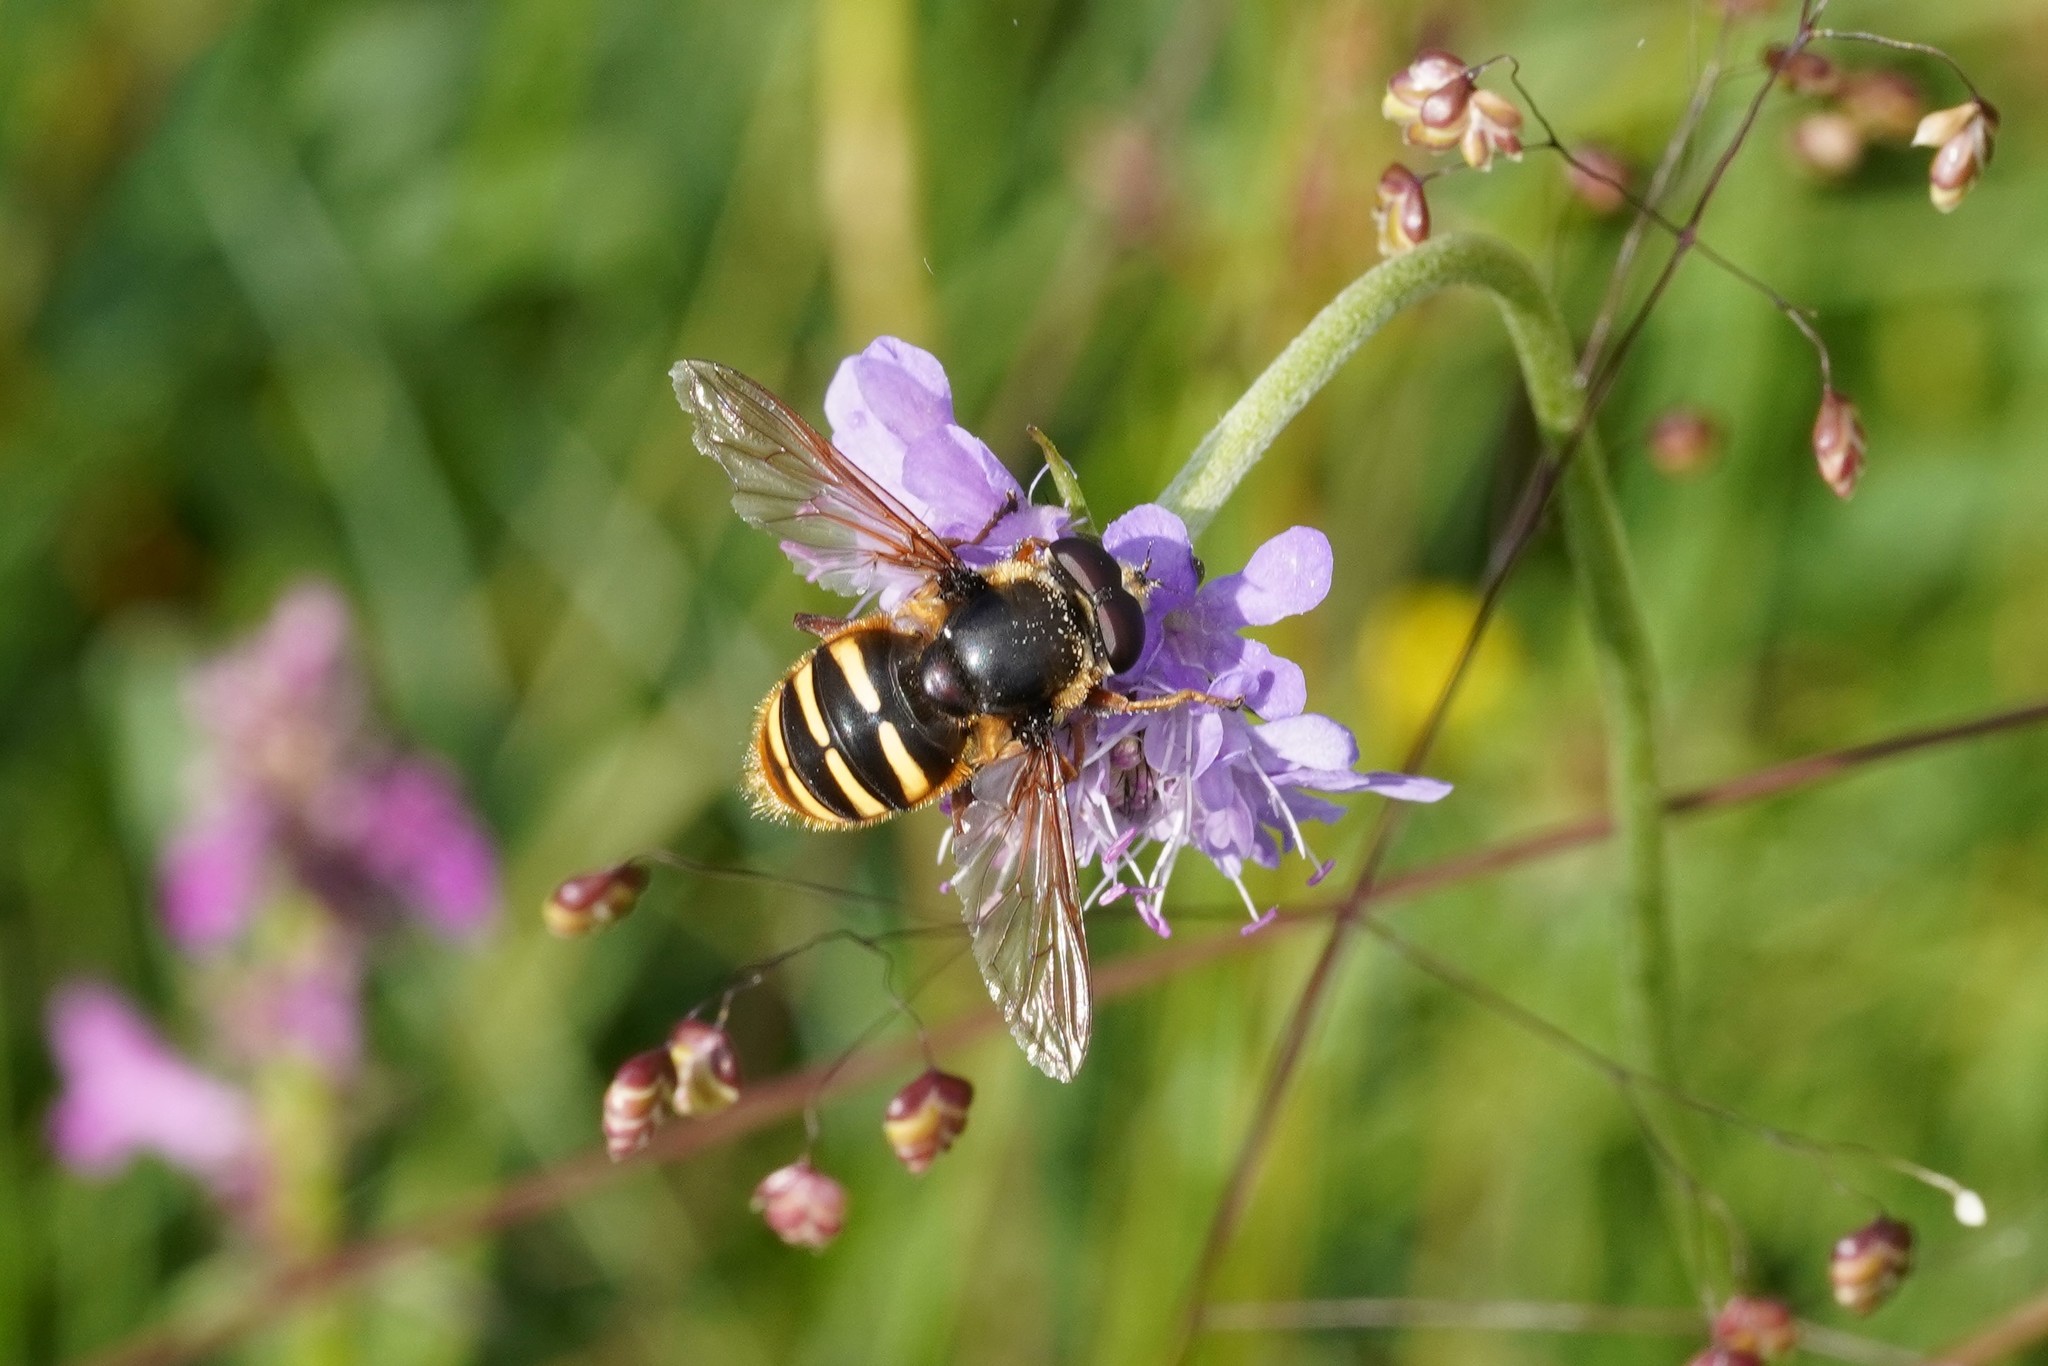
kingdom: Animalia
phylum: Arthropoda
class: Insecta
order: Diptera
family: Syrphidae
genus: Sericomyia
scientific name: Sericomyia silentis
